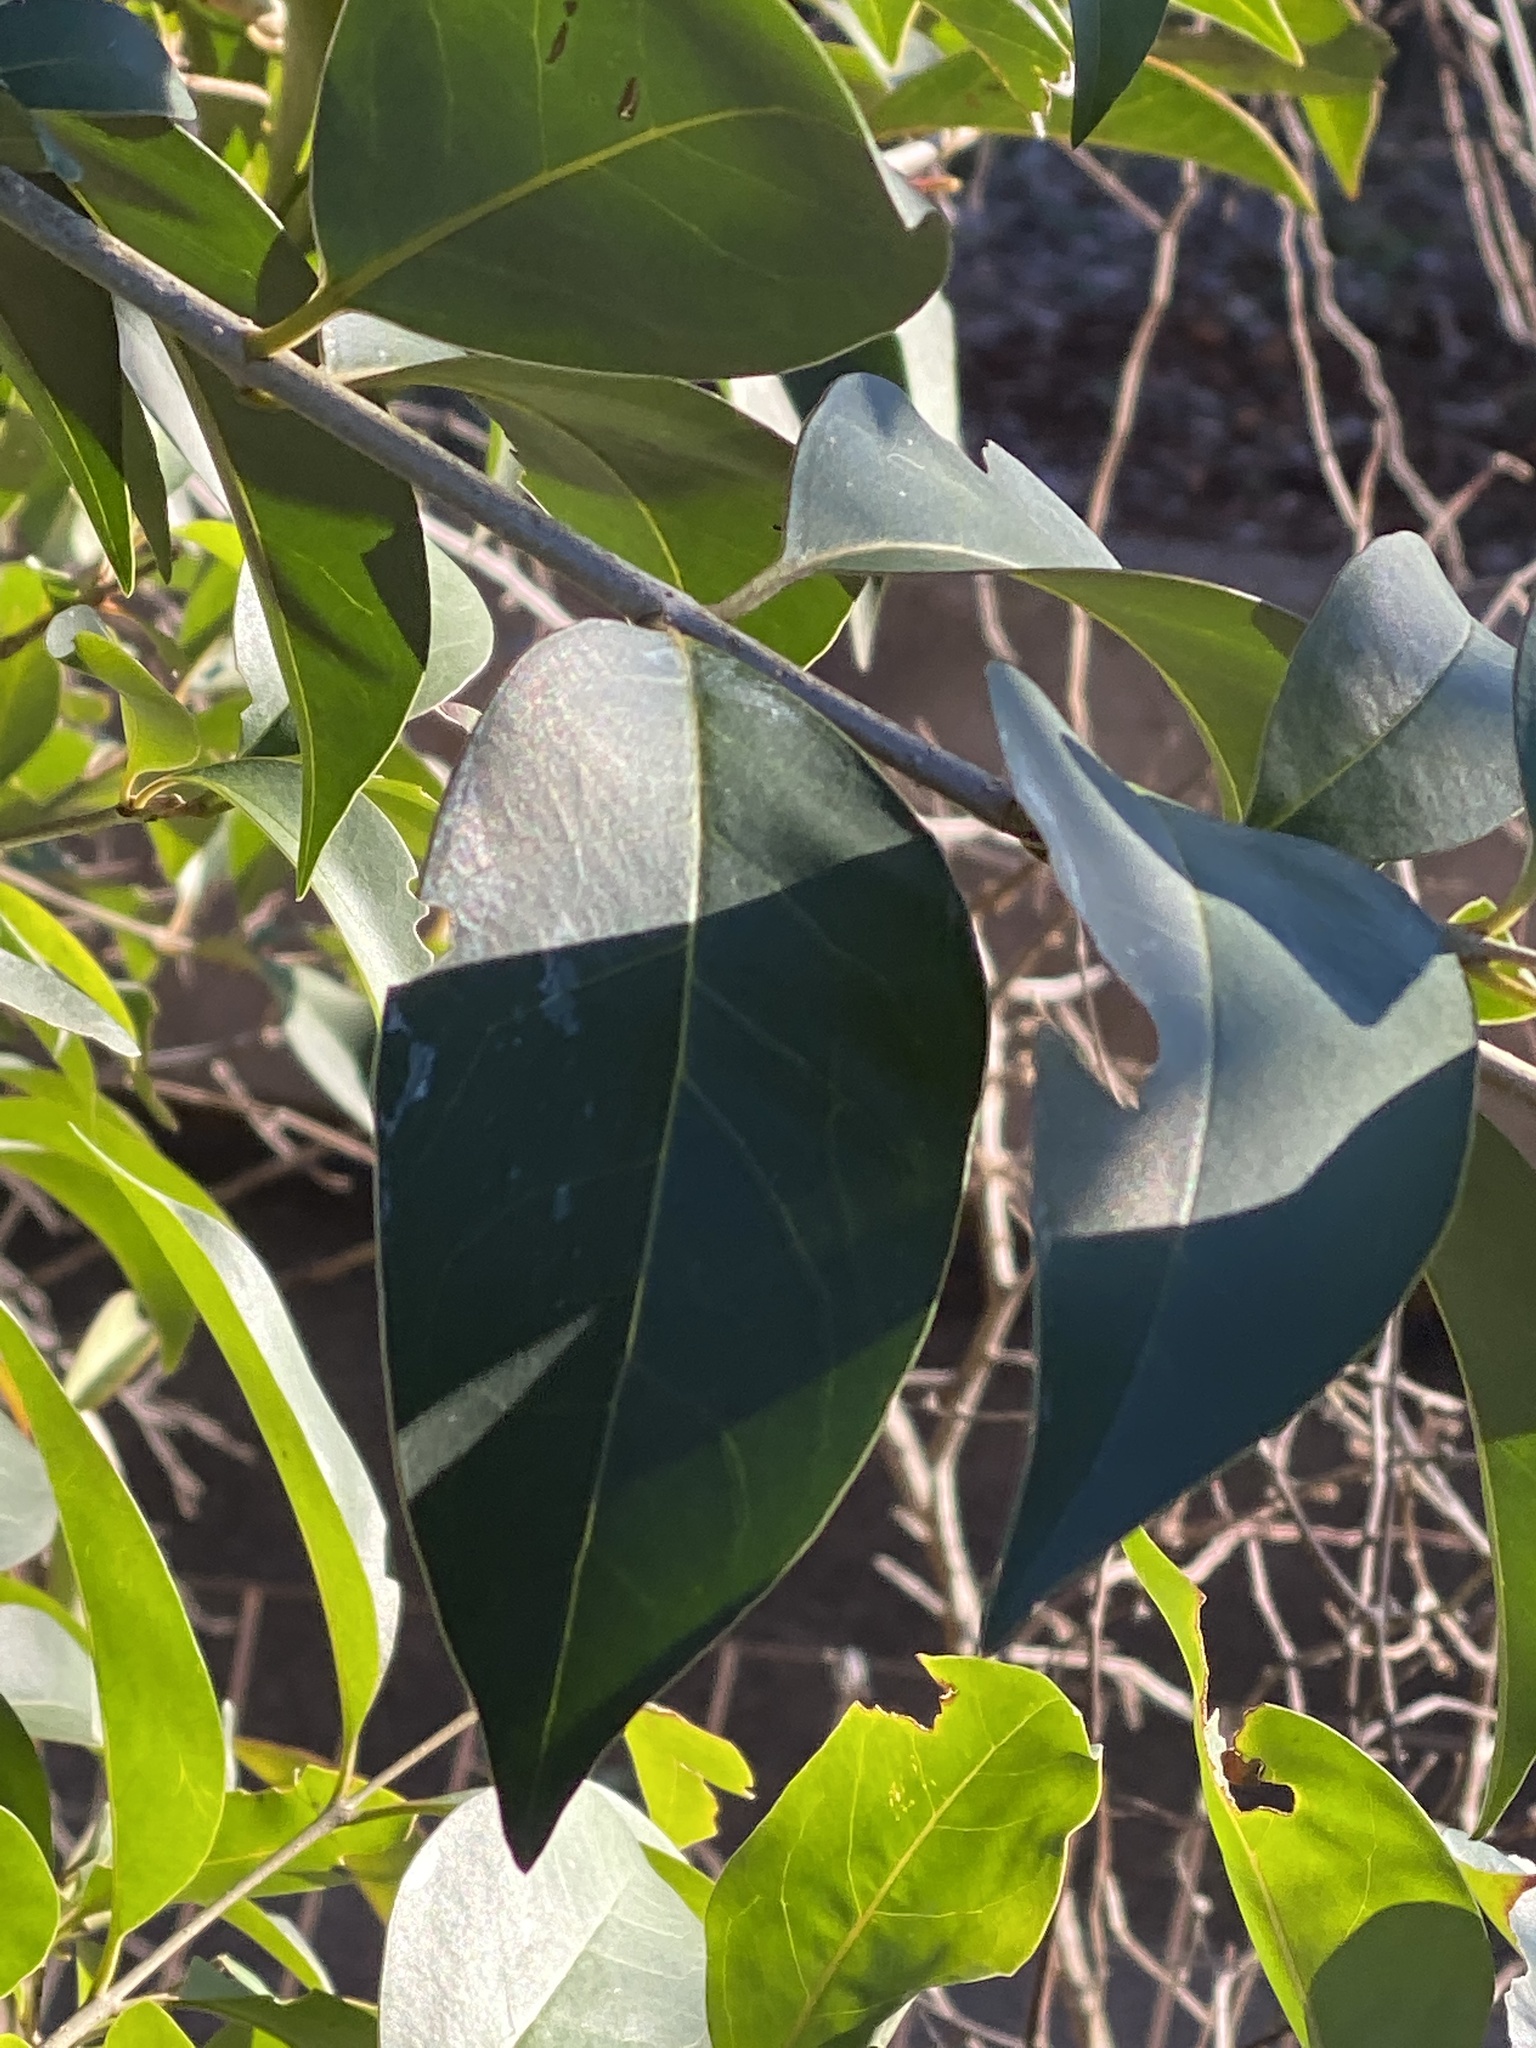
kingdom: Plantae
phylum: Tracheophyta
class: Magnoliopsida
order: Lamiales
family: Oleaceae
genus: Ligustrum
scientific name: Ligustrum lucidum
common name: Glossy privet
